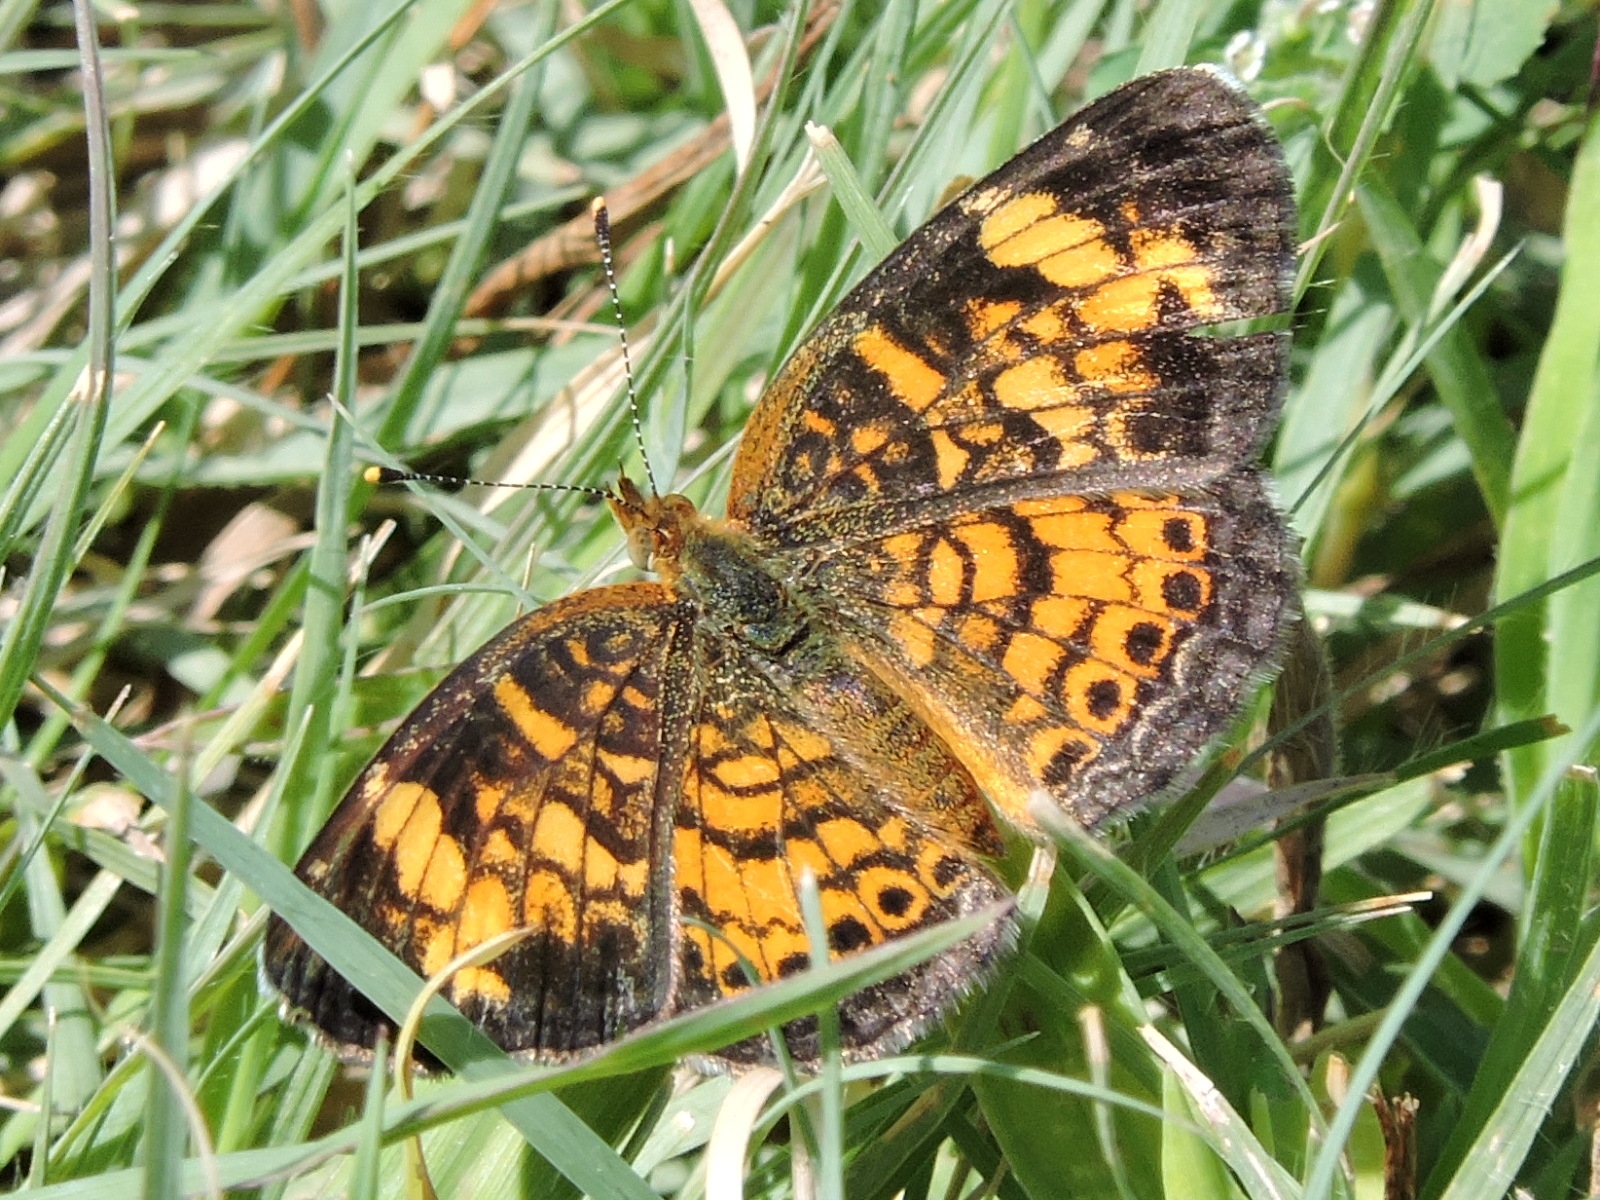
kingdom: Animalia
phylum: Arthropoda
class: Insecta
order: Lepidoptera
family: Nymphalidae
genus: Phyciodes
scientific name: Phyciodes tharos
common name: Pearl crescent
